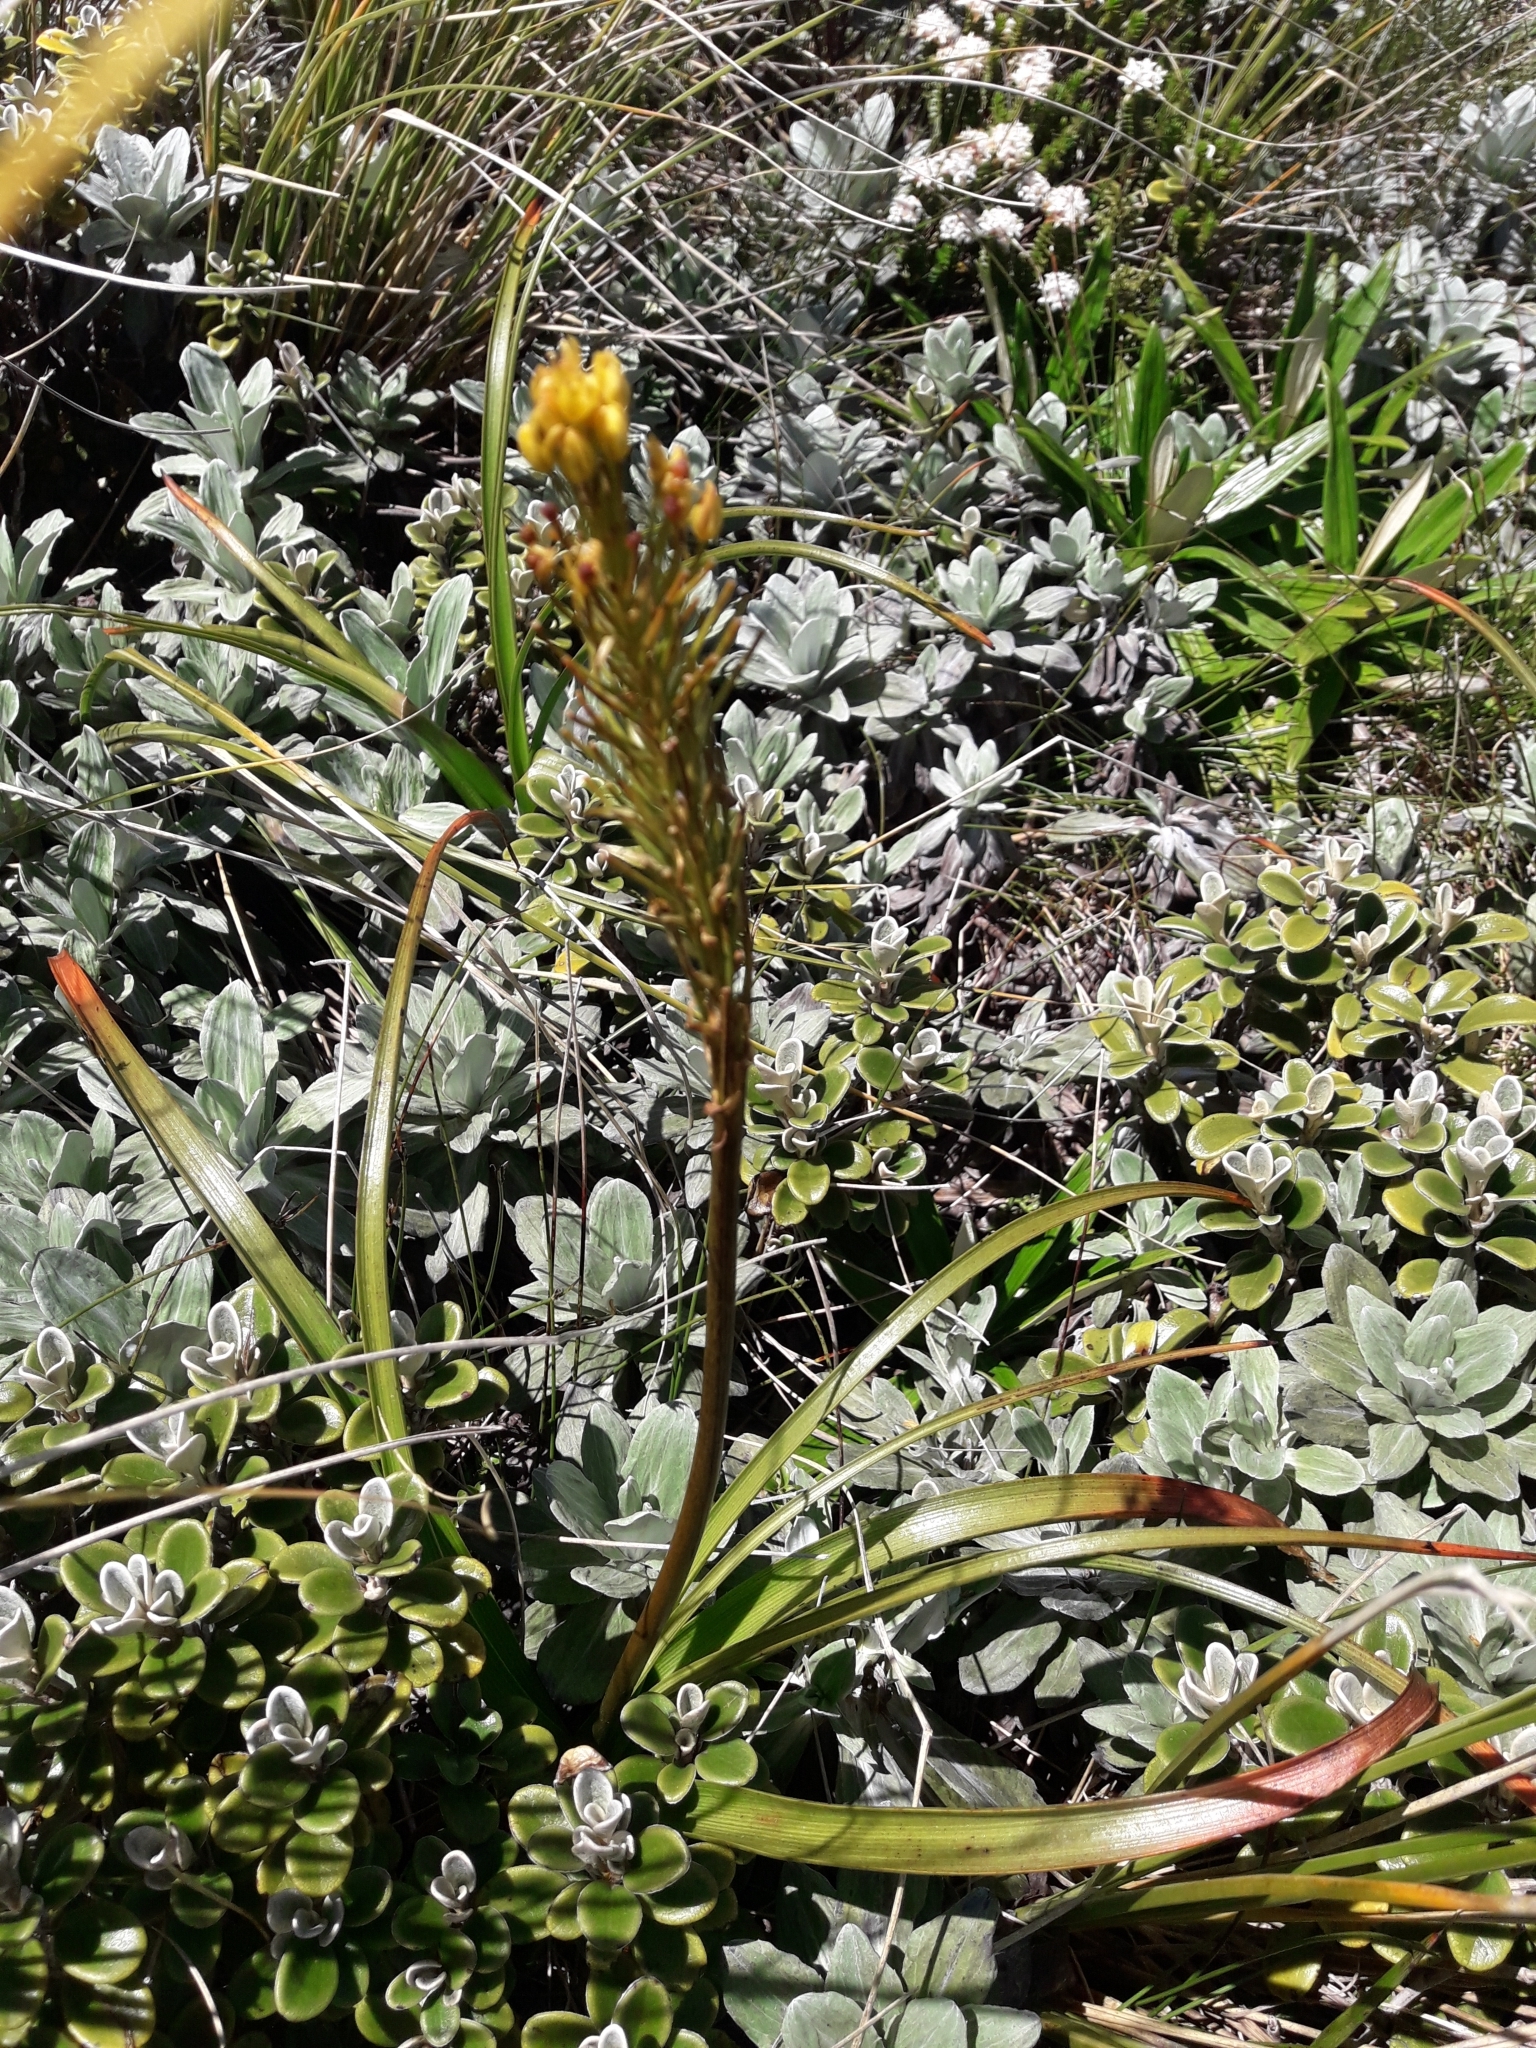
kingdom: Plantae
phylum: Tracheophyta
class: Liliopsida
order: Asparagales
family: Asphodelaceae
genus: Bulbinella
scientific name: Bulbinella hookeri
